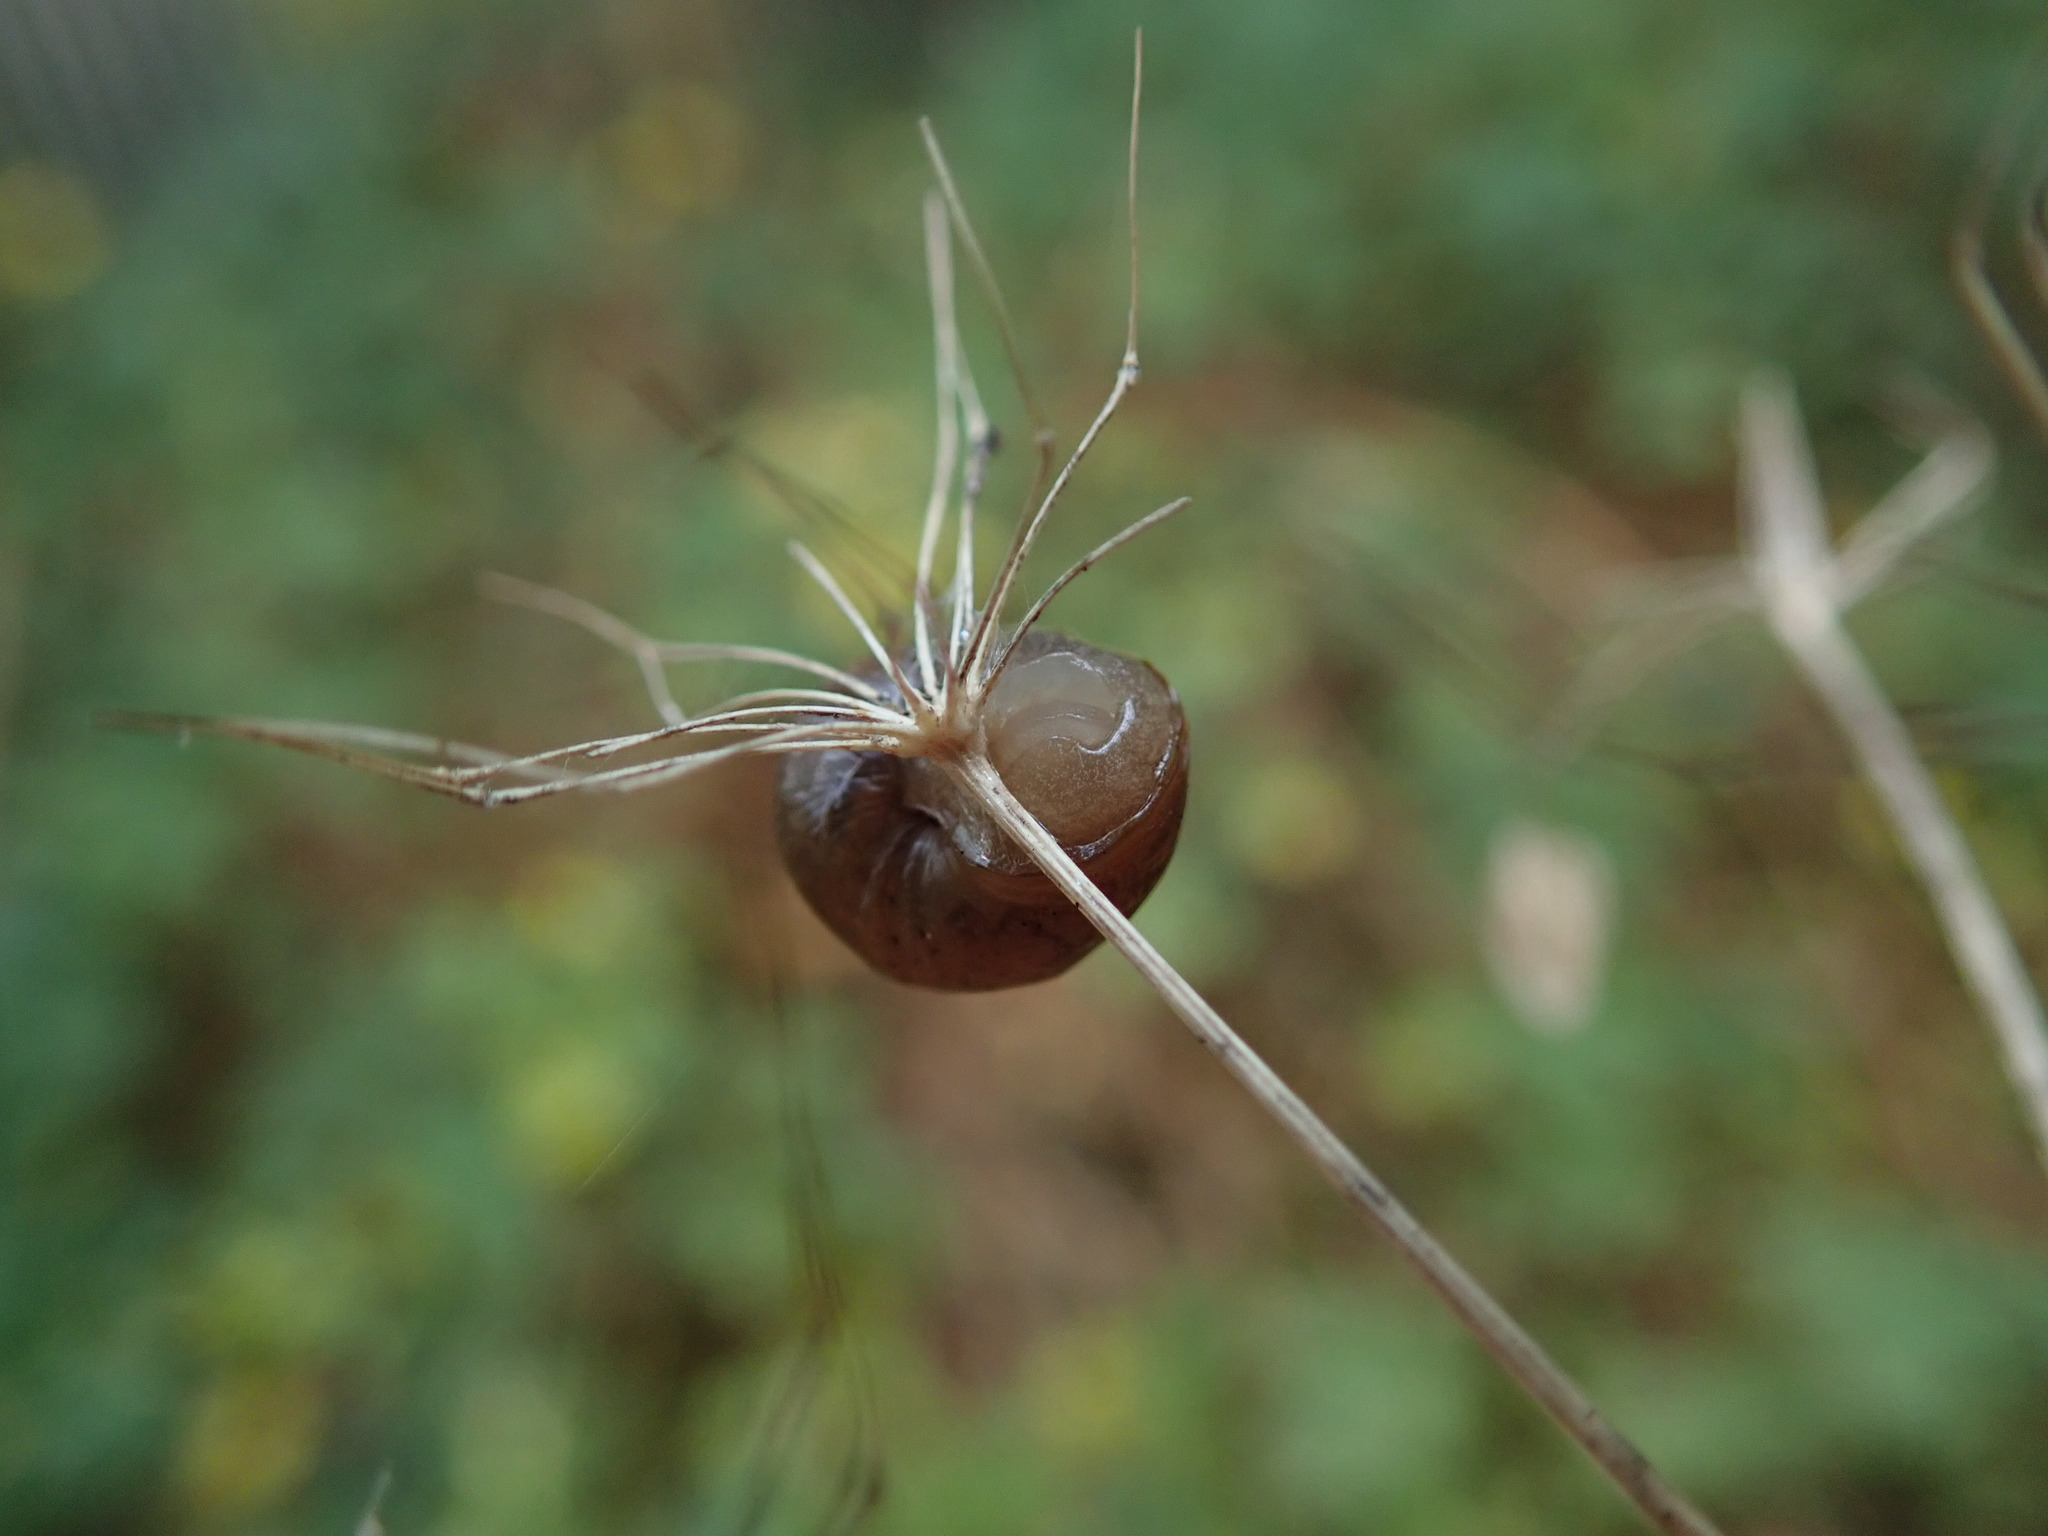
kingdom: Animalia
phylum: Mollusca
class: Gastropoda
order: Stylommatophora
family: Helicidae
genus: Cornu
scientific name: Cornu aspersum
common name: Brown garden snail
